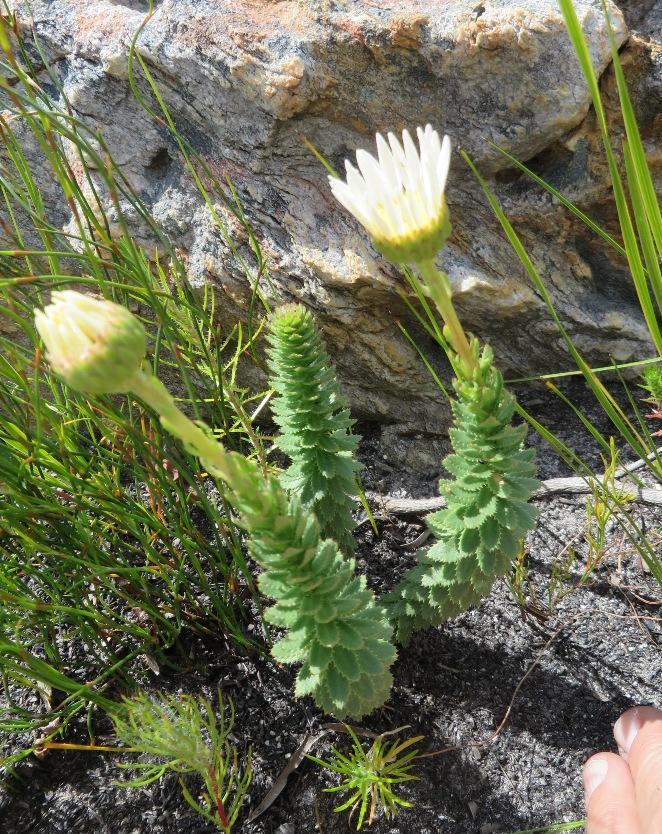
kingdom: Plantae
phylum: Tracheophyta
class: Magnoliopsida
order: Asterales
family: Asteraceae
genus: Osmitopsis
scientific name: Osmitopsis glabra
